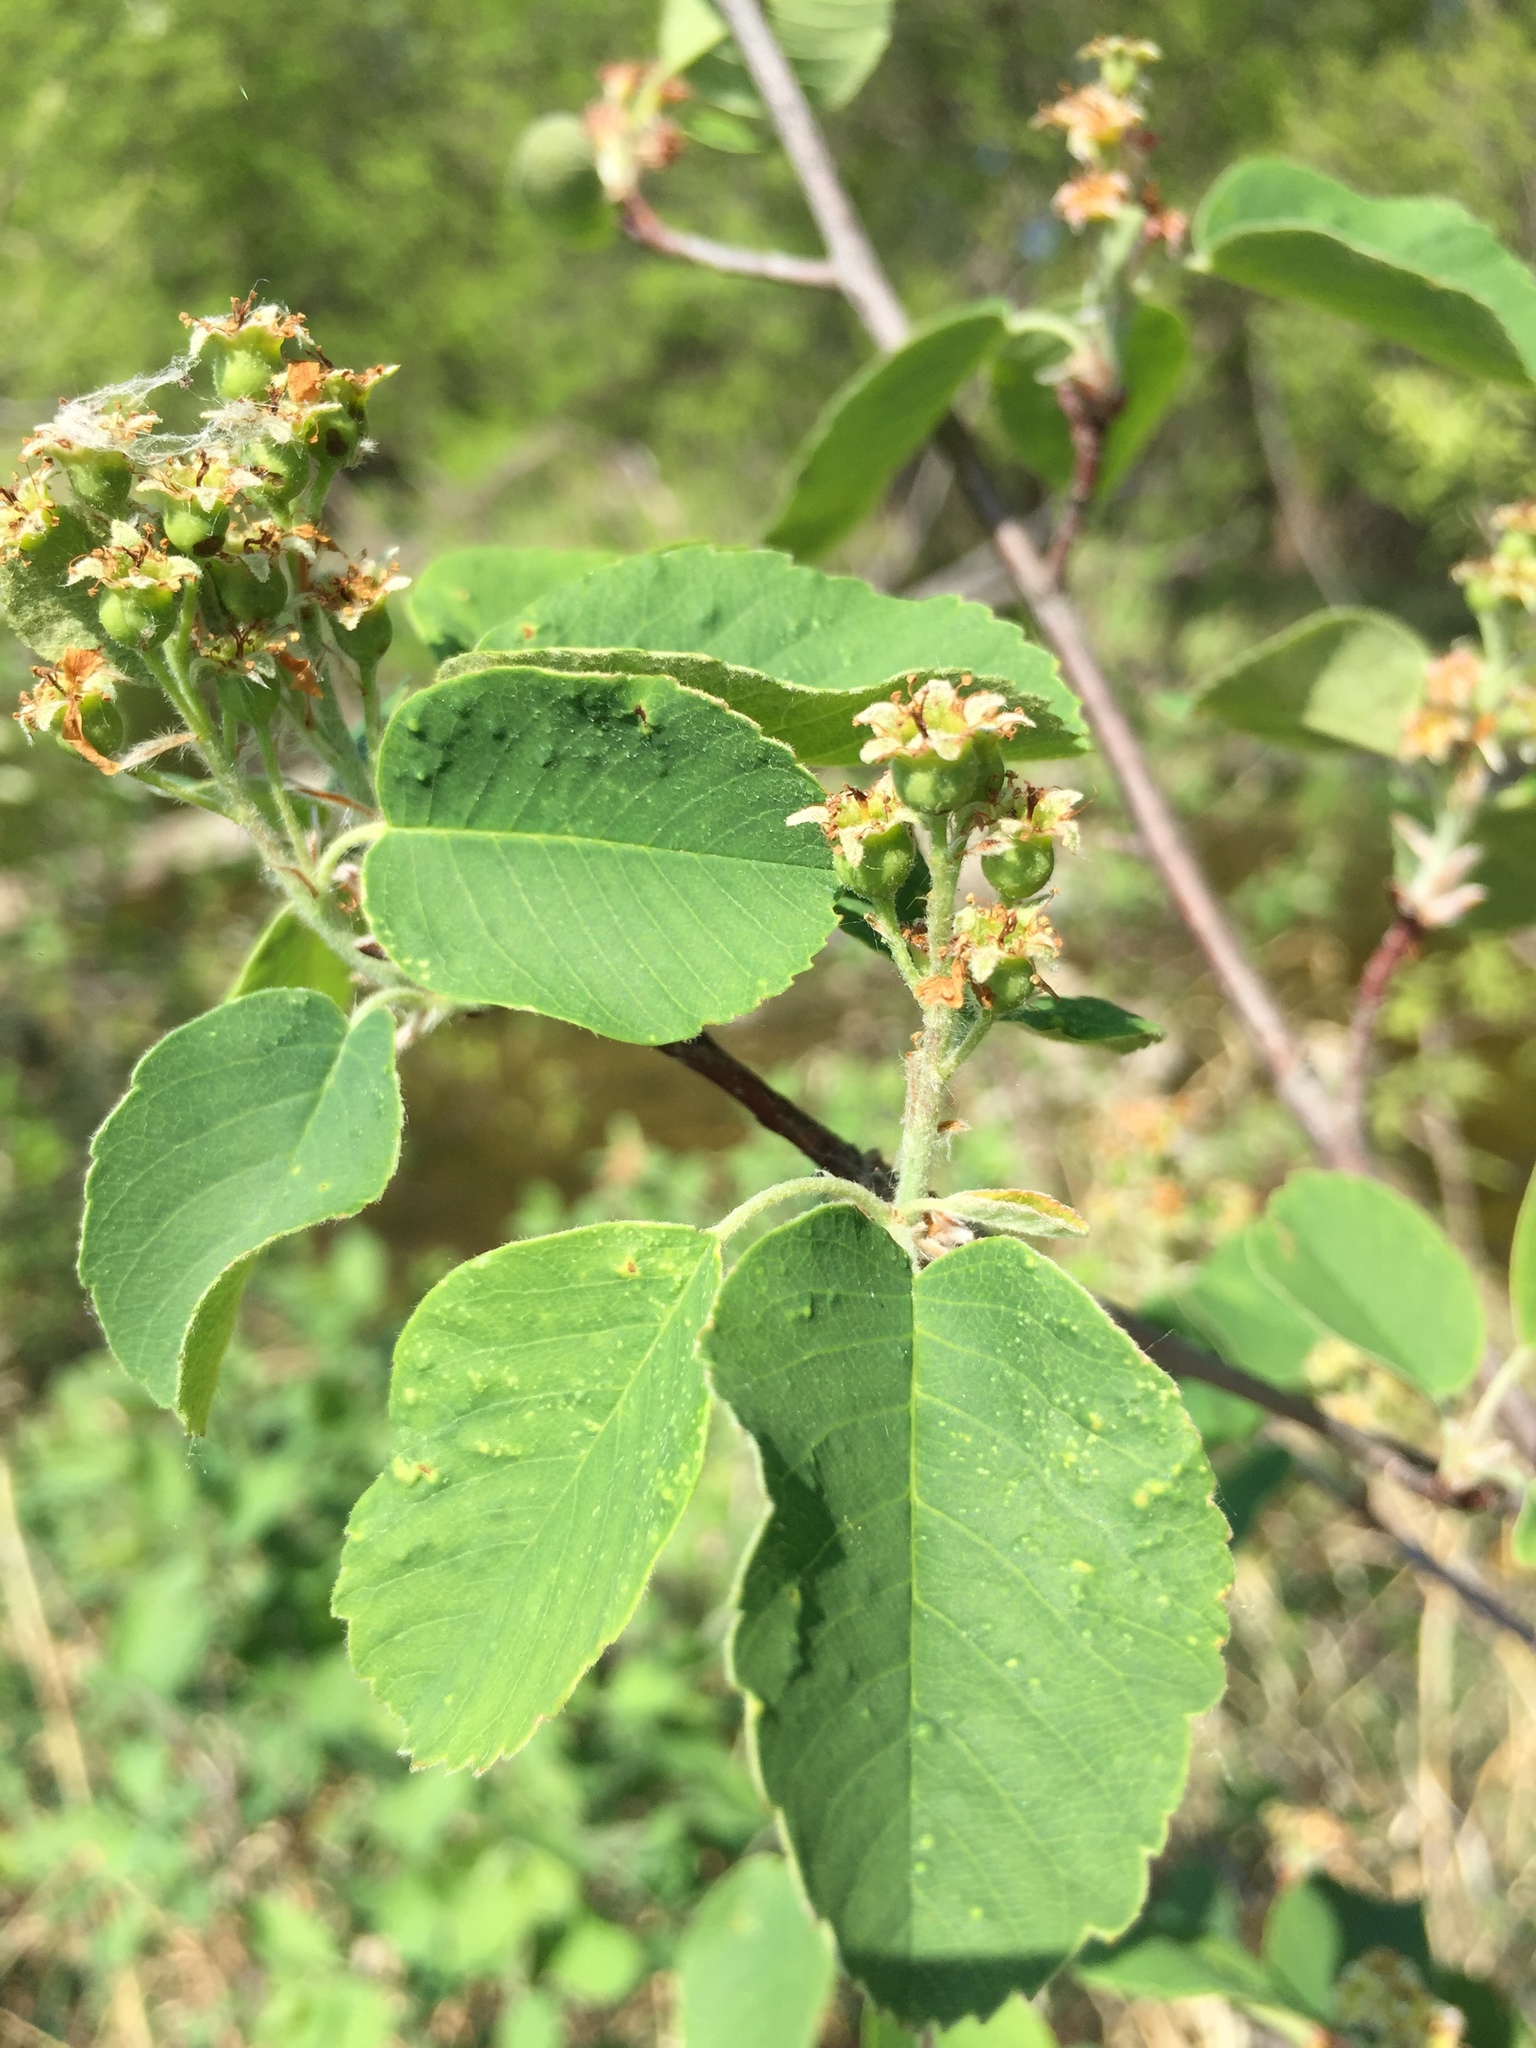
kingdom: Plantae
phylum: Tracheophyta
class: Magnoliopsida
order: Rosales
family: Rosaceae
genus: Amelanchier
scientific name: Amelanchier alnifolia
